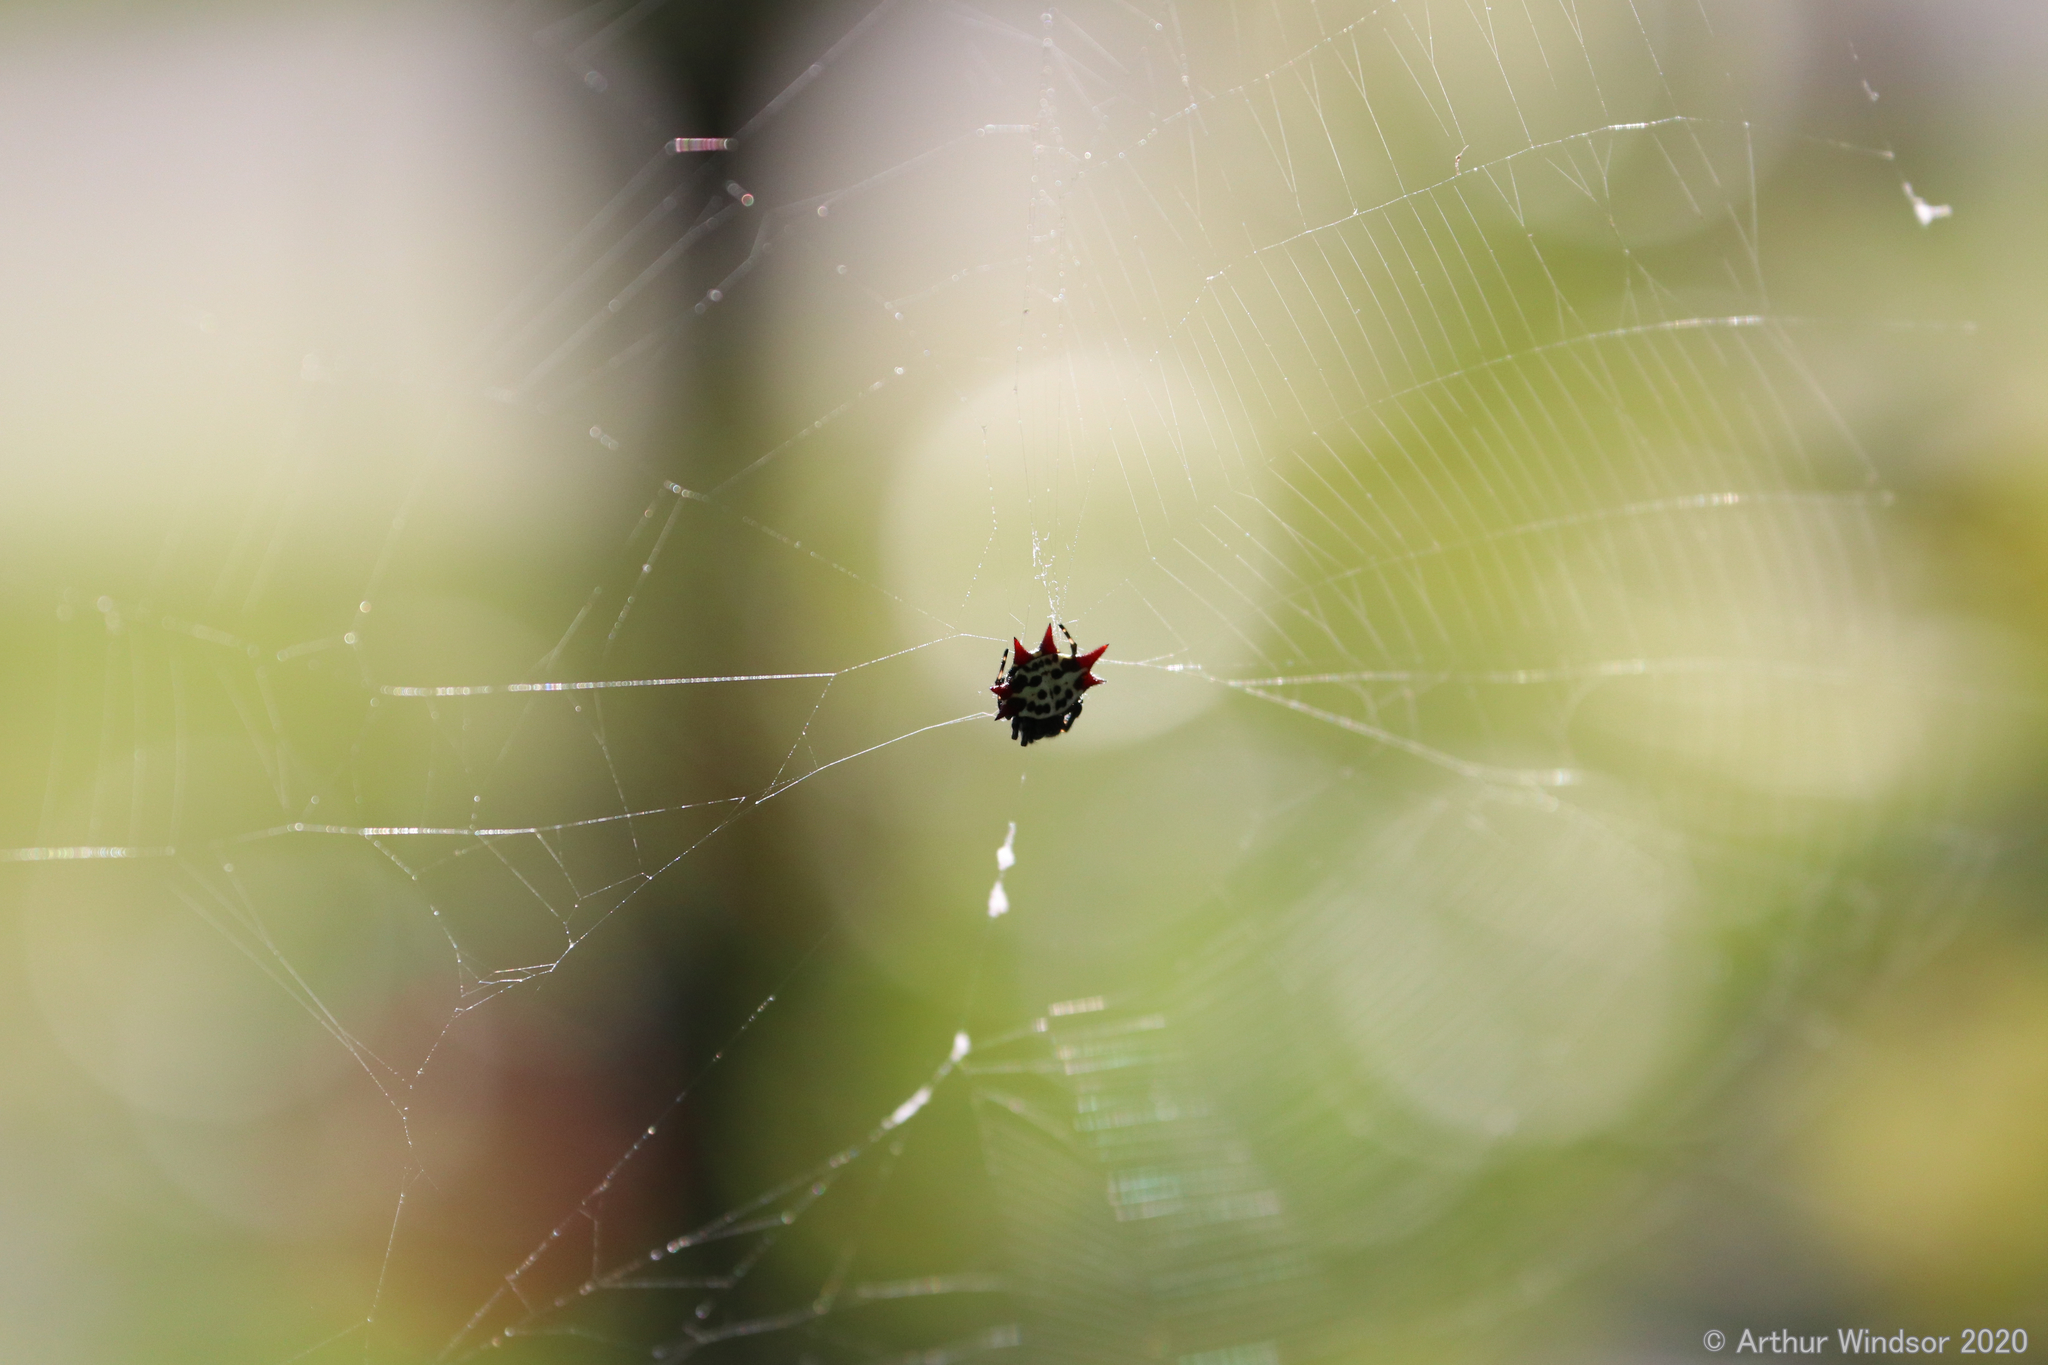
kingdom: Animalia
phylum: Arthropoda
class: Arachnida
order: Araneae
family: Araneidae
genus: Gasteracantha
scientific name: Gasteracantha cancriformis
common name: Orb weavers
